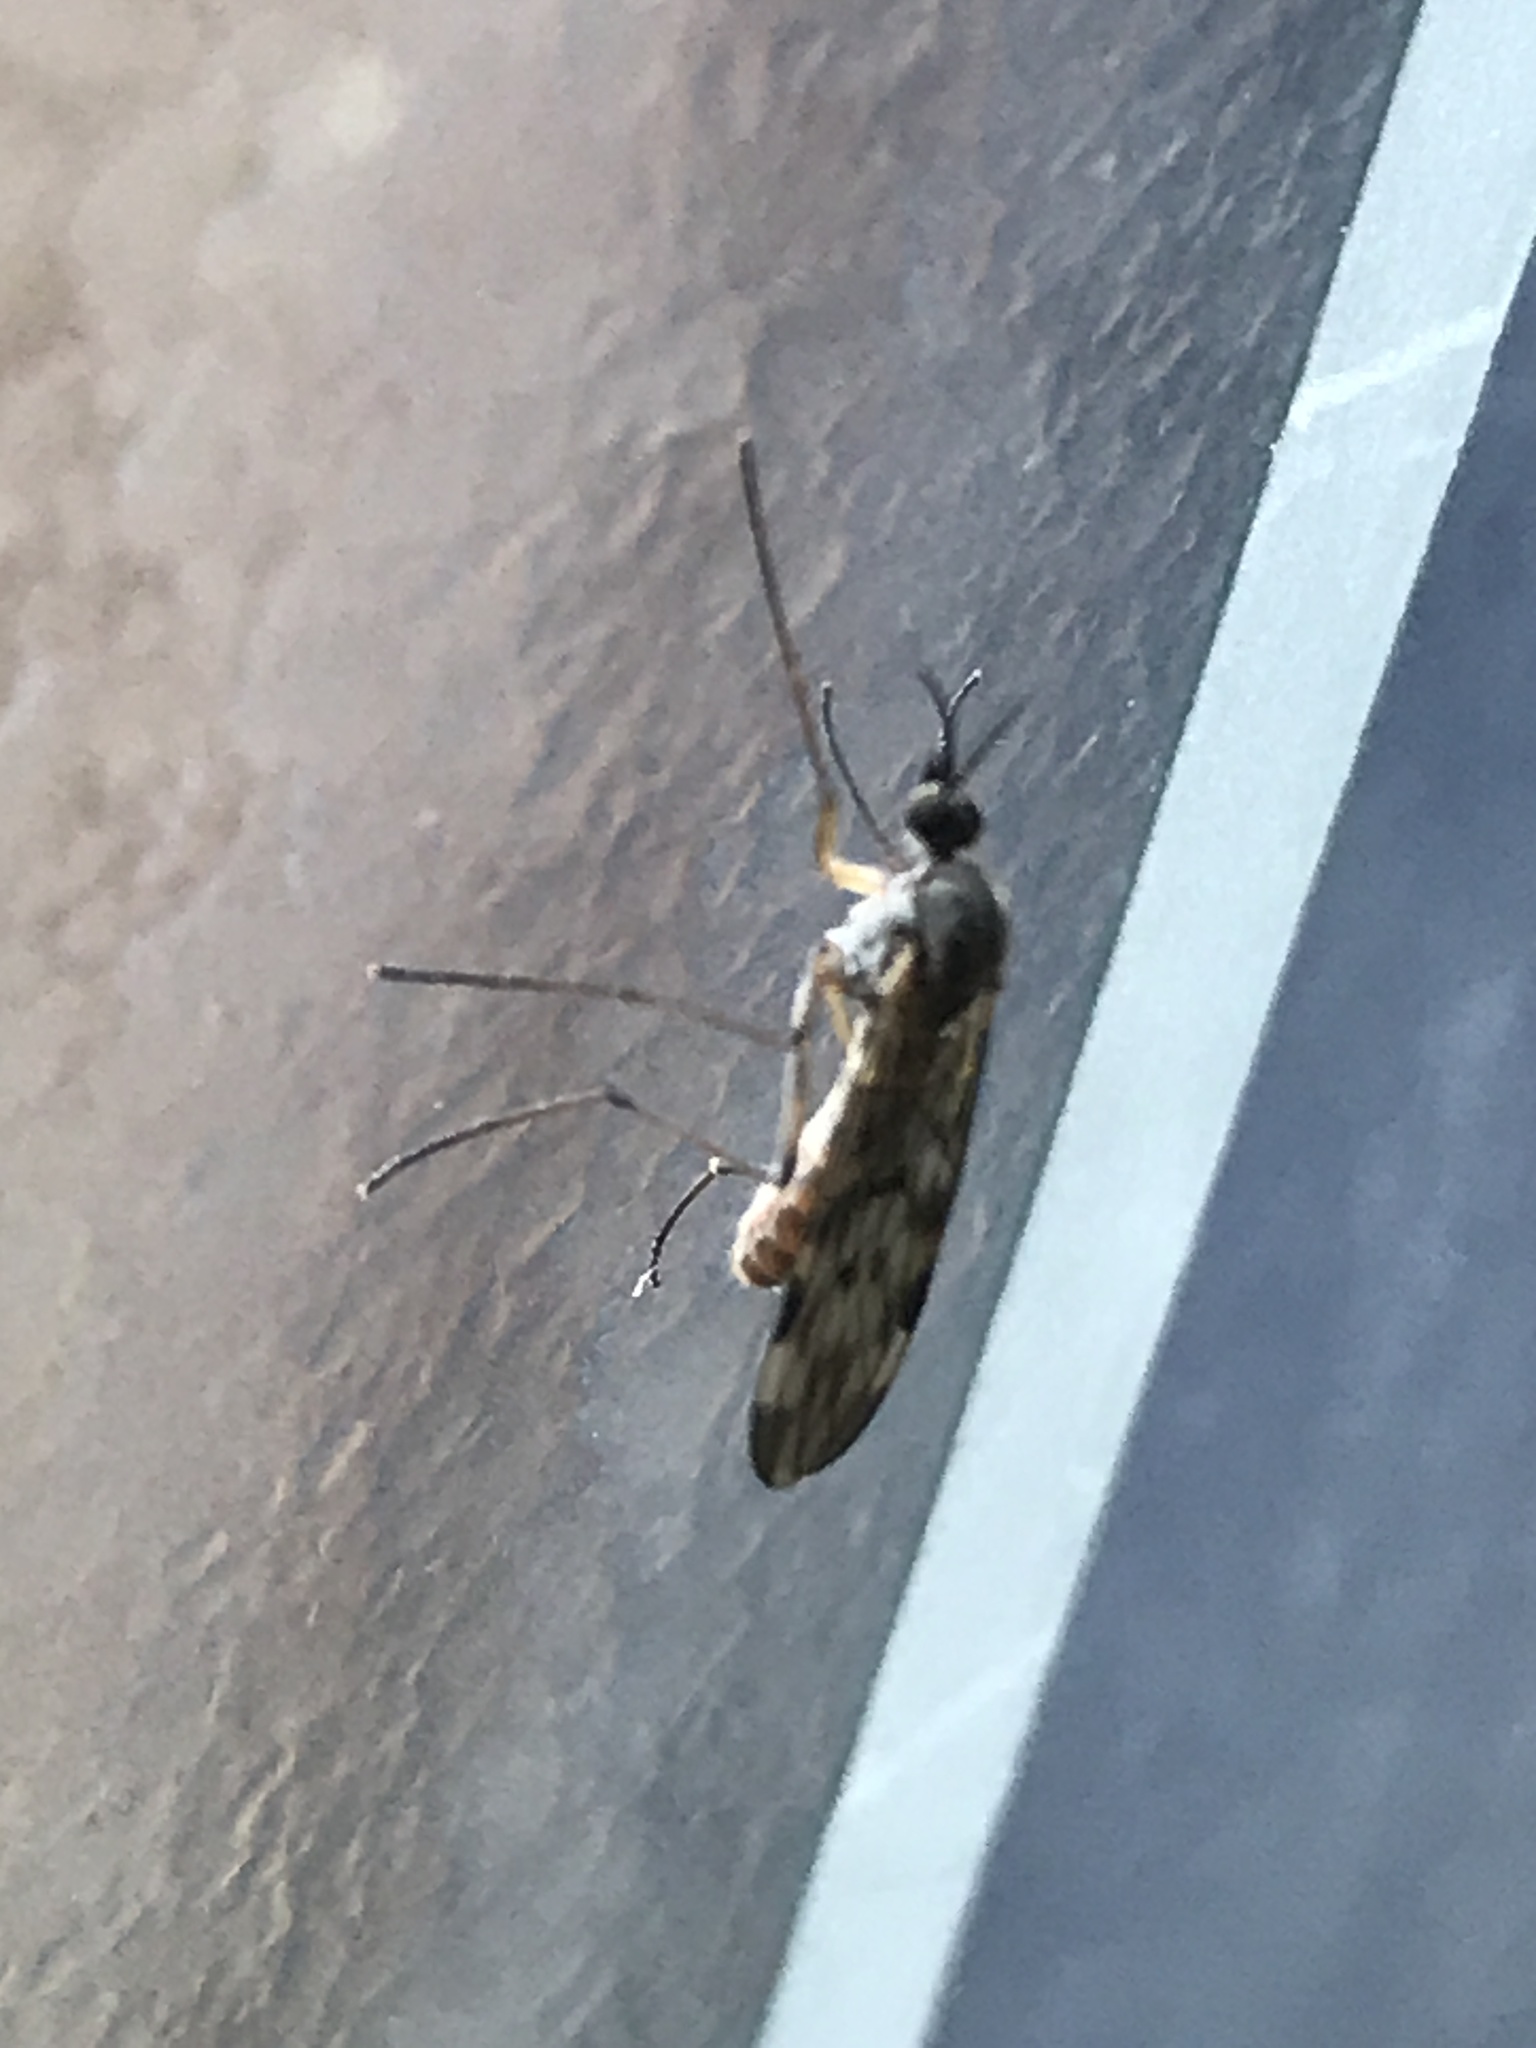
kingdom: Animalia
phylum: Arthropoda
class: Insecta
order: Diptera
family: Anisopodidae
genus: Sylvicola
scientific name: Sylvicola
